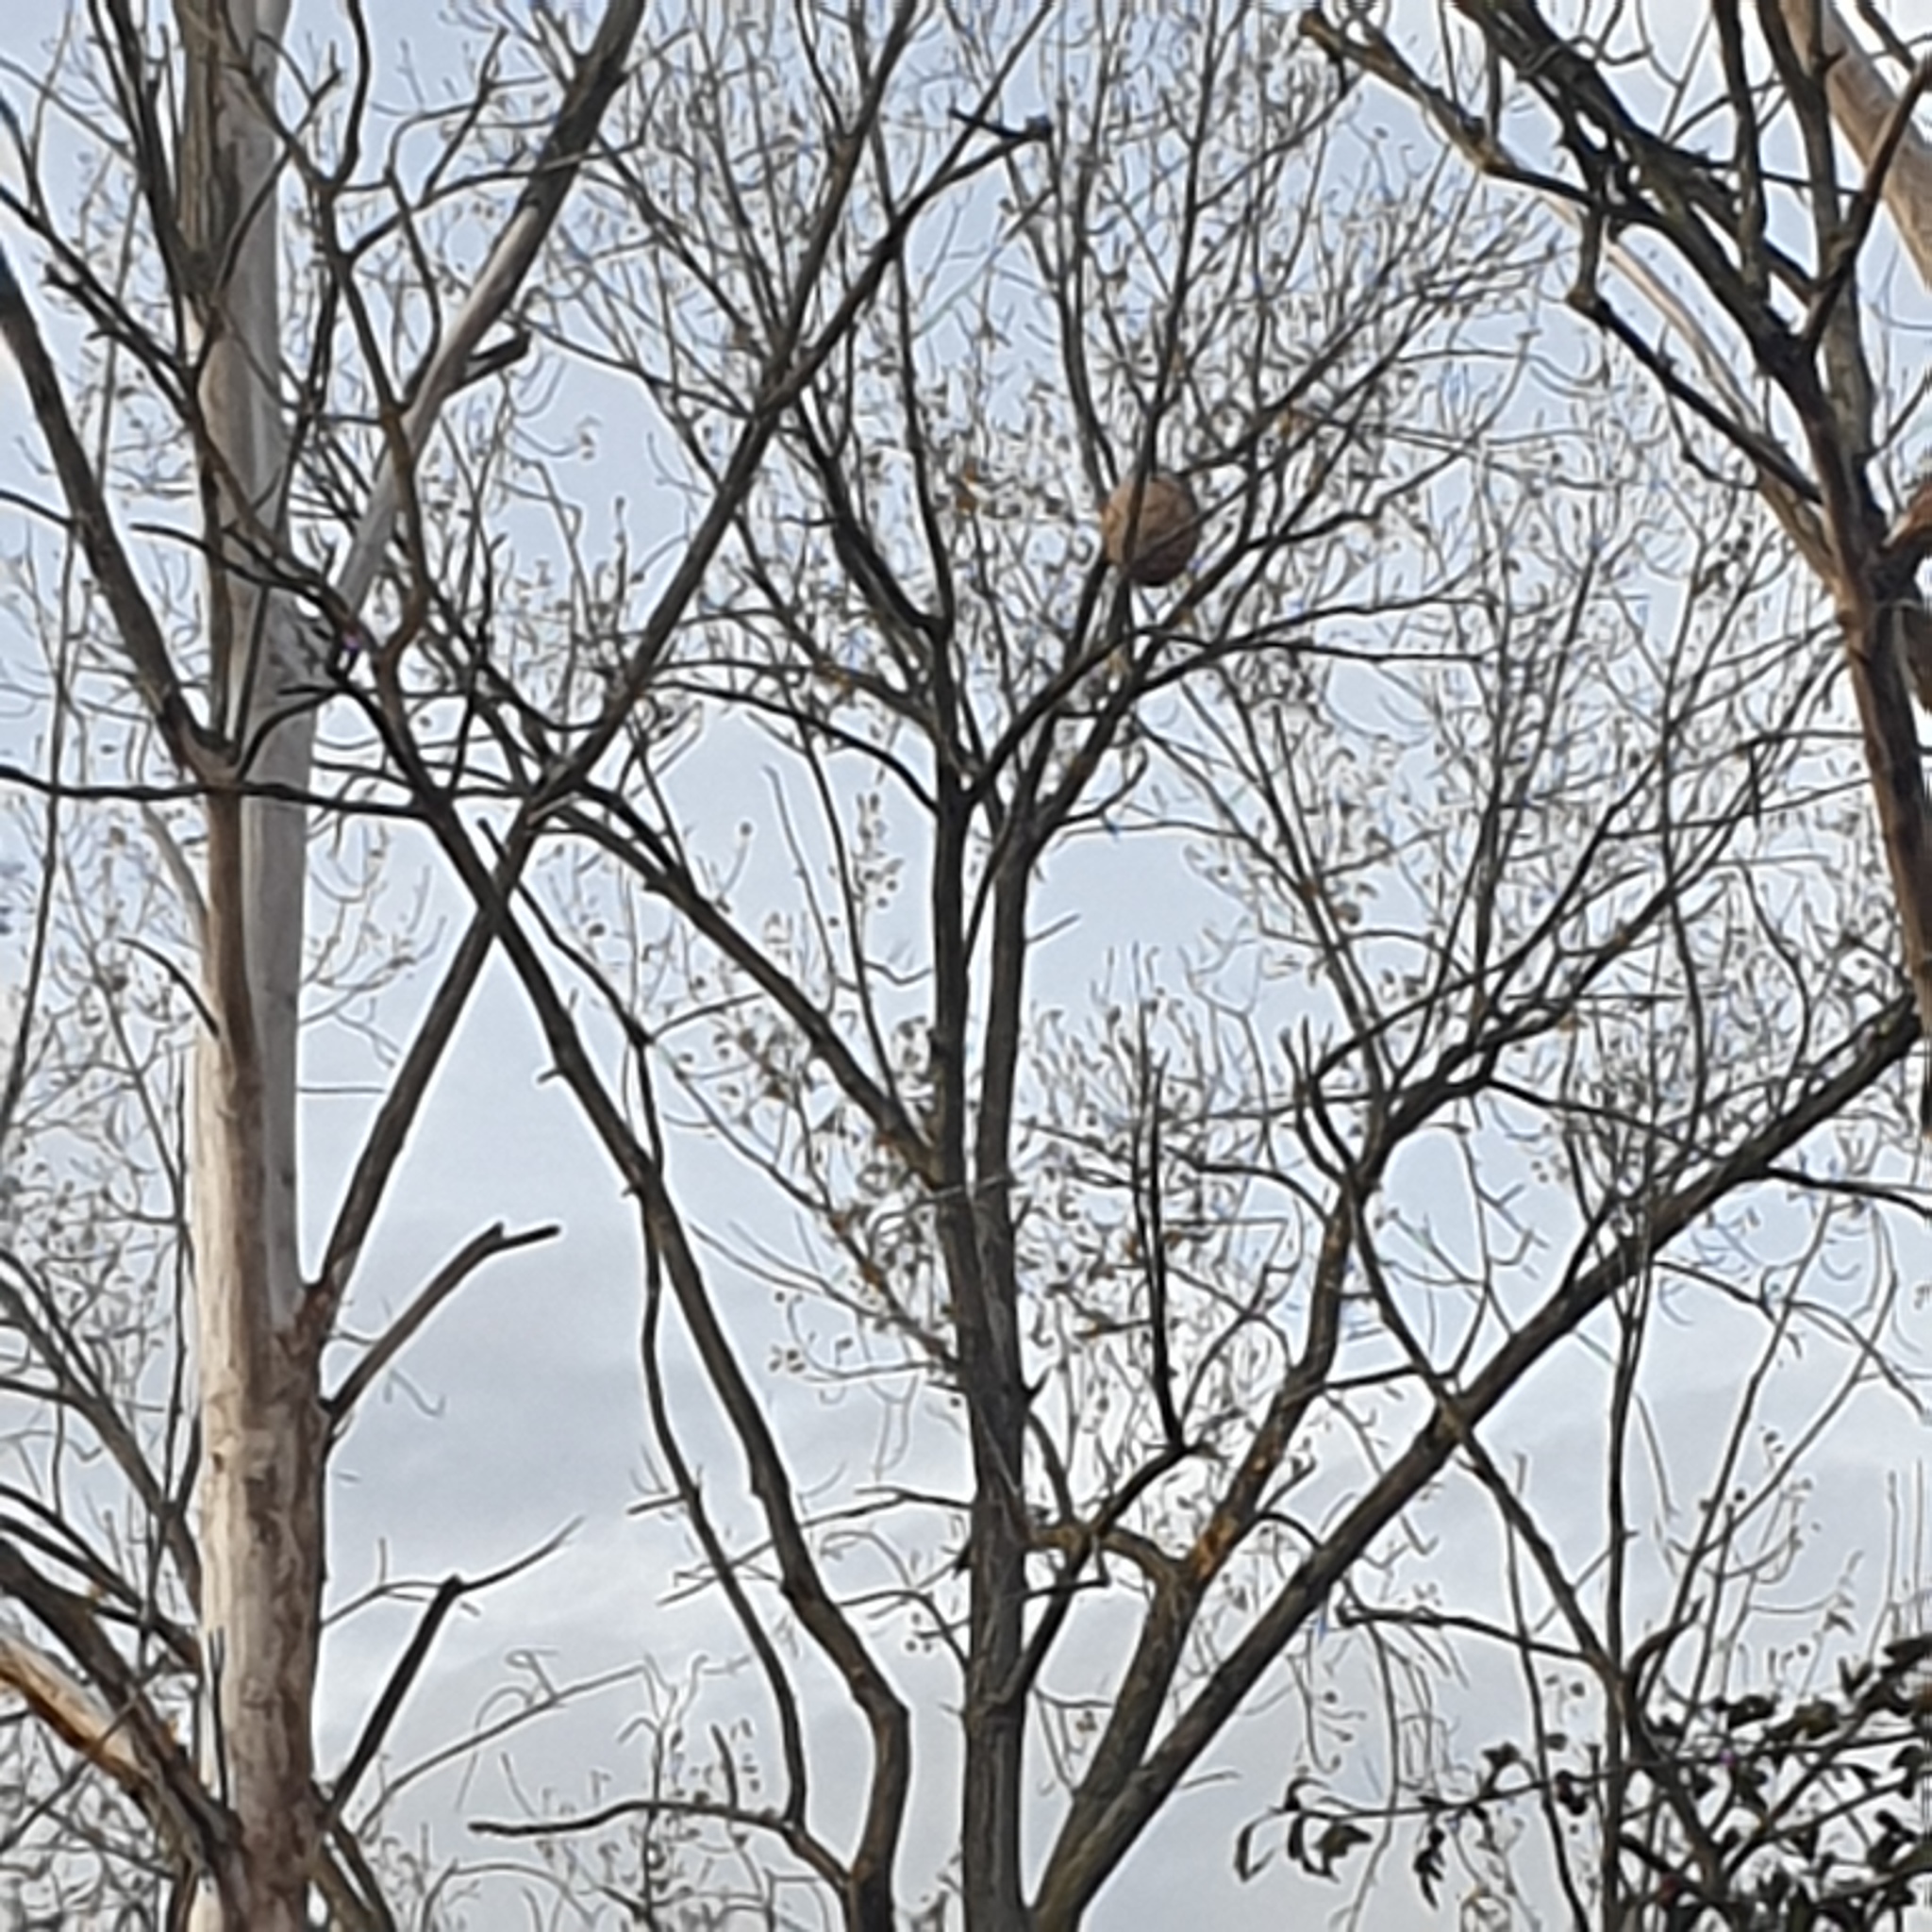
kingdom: Animalia
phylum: Arthropoda
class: Insecta
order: Hymenoptera
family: Vespidae
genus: Vespa
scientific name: Vespa velutina
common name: Asian hornet
